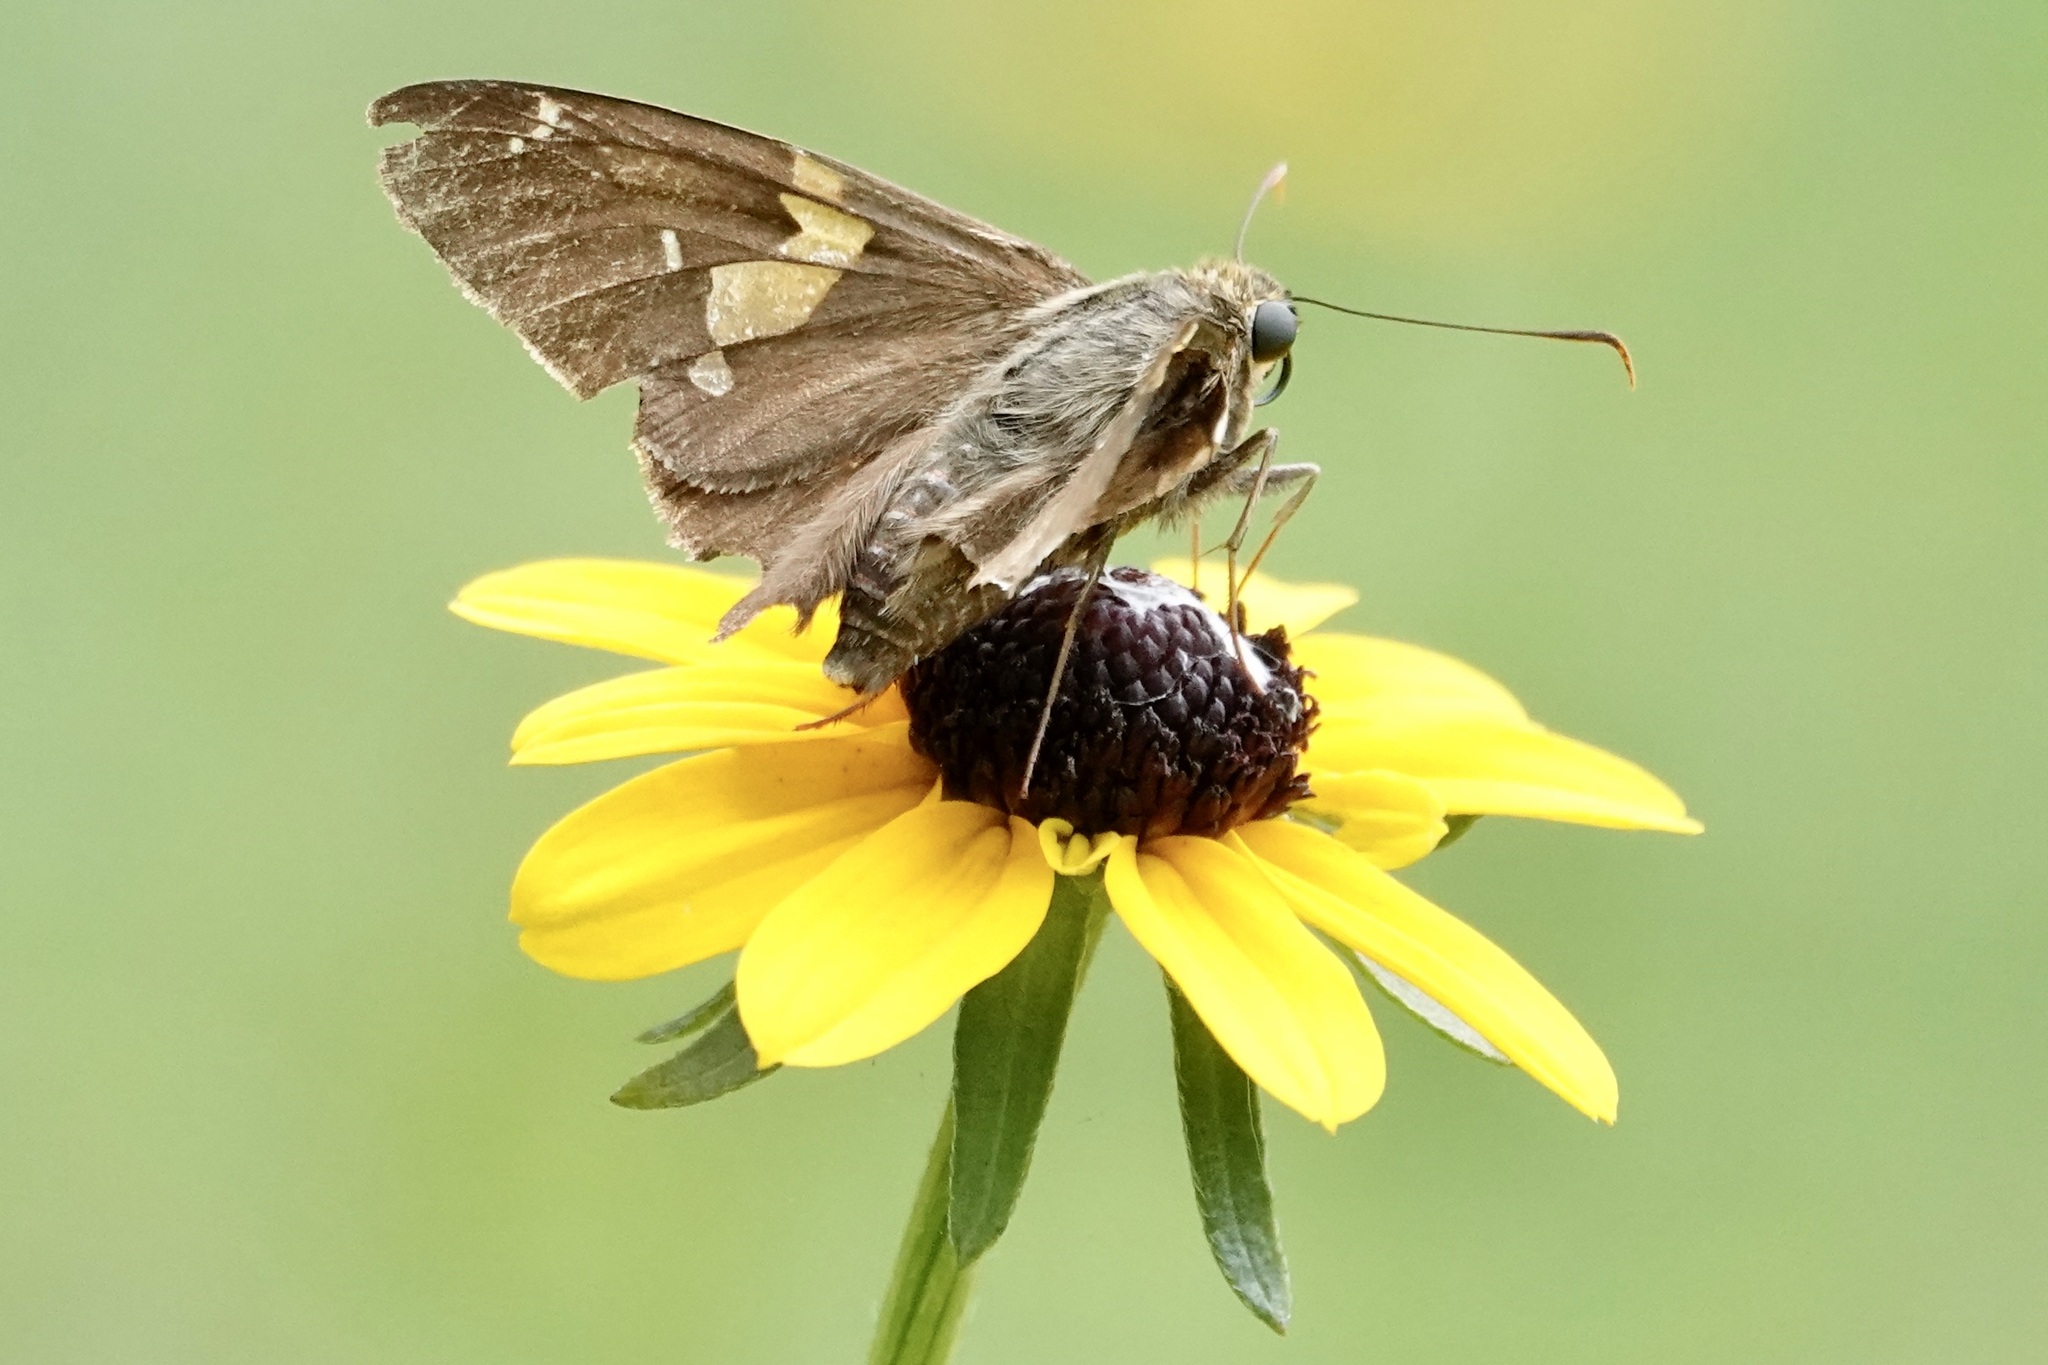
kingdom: Animalia
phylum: Arthropoda
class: Insecta
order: Lepidoptera
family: Hesperiidae
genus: Epargyreus
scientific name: Epargyreus clarus
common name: Silver-spotted skipper
